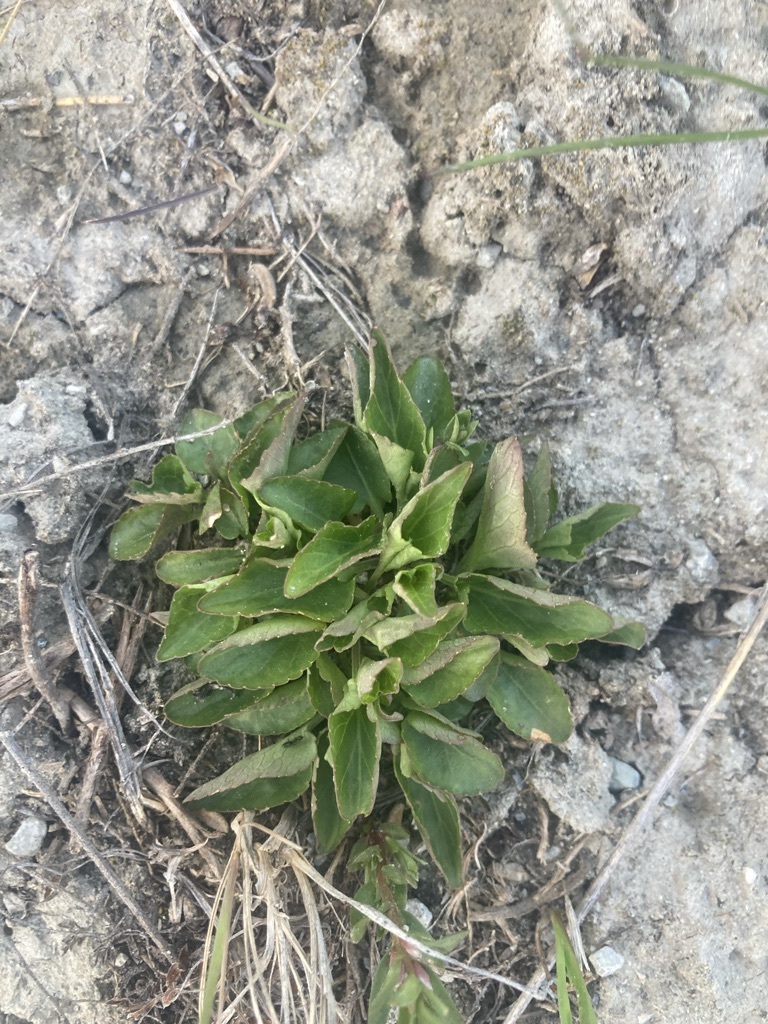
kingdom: Plantae
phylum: Tracheophyta
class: Magnoliopsida
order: Malpighiales
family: Violaceae
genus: Viola
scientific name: Viola adunca
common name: Sand violet
